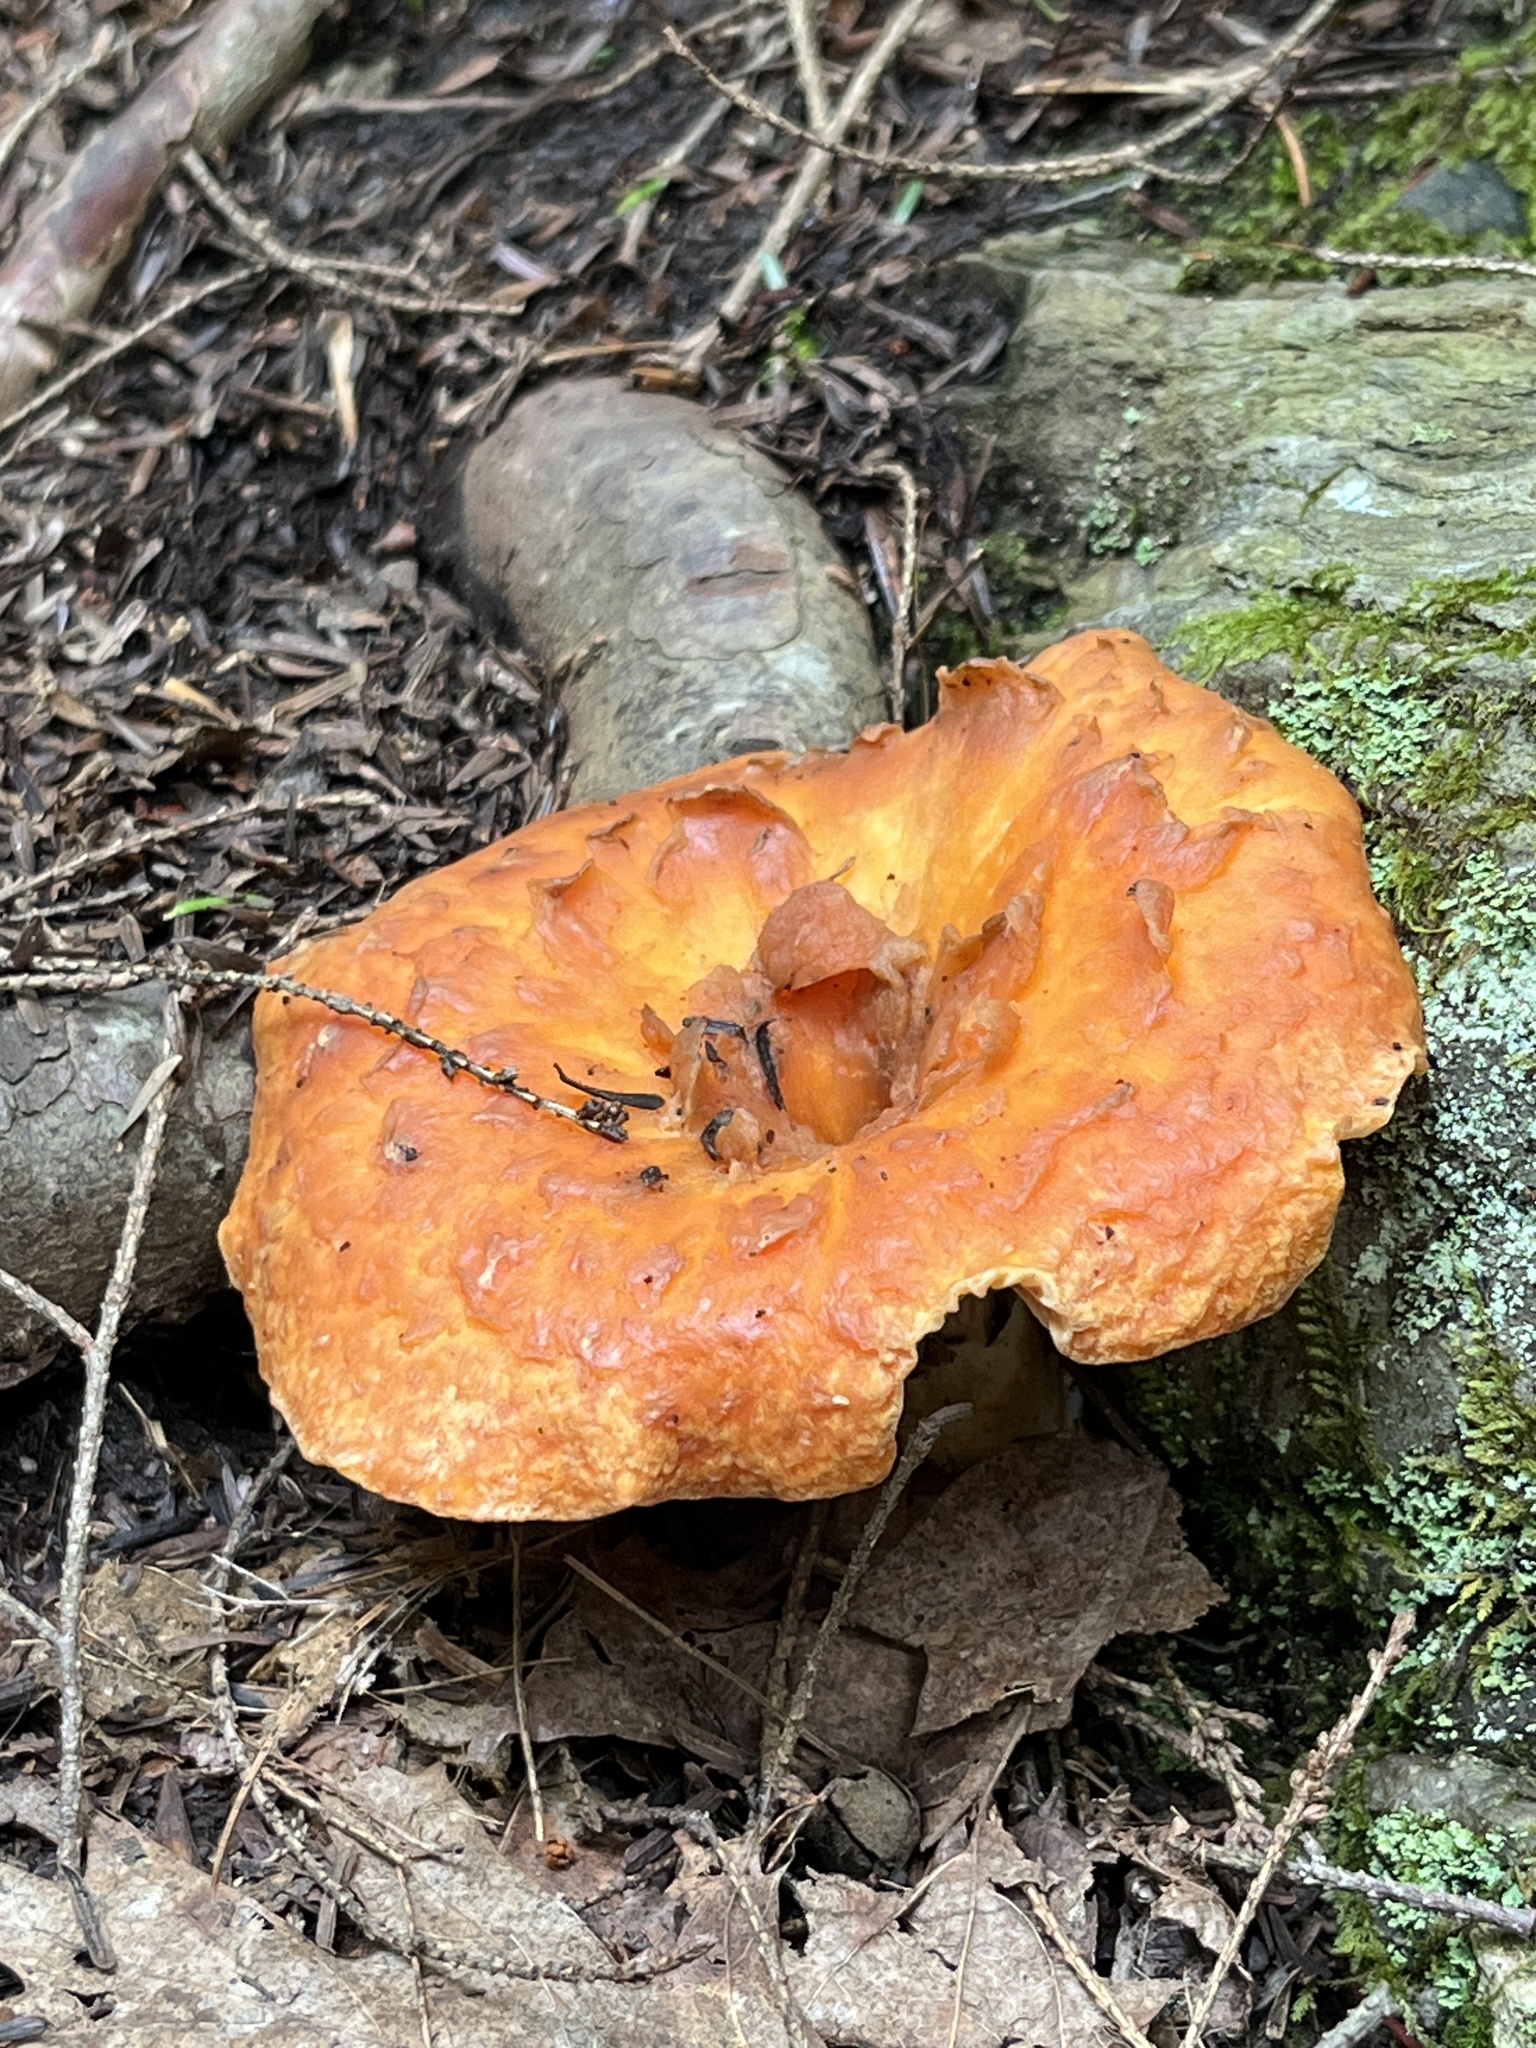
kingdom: Fungi
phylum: Basidiomycota
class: Agaricomycetes
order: Gomphales
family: Gomphaceae
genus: Turbinellus
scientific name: Turbinellus floccosus
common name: Scaly chanterelle
